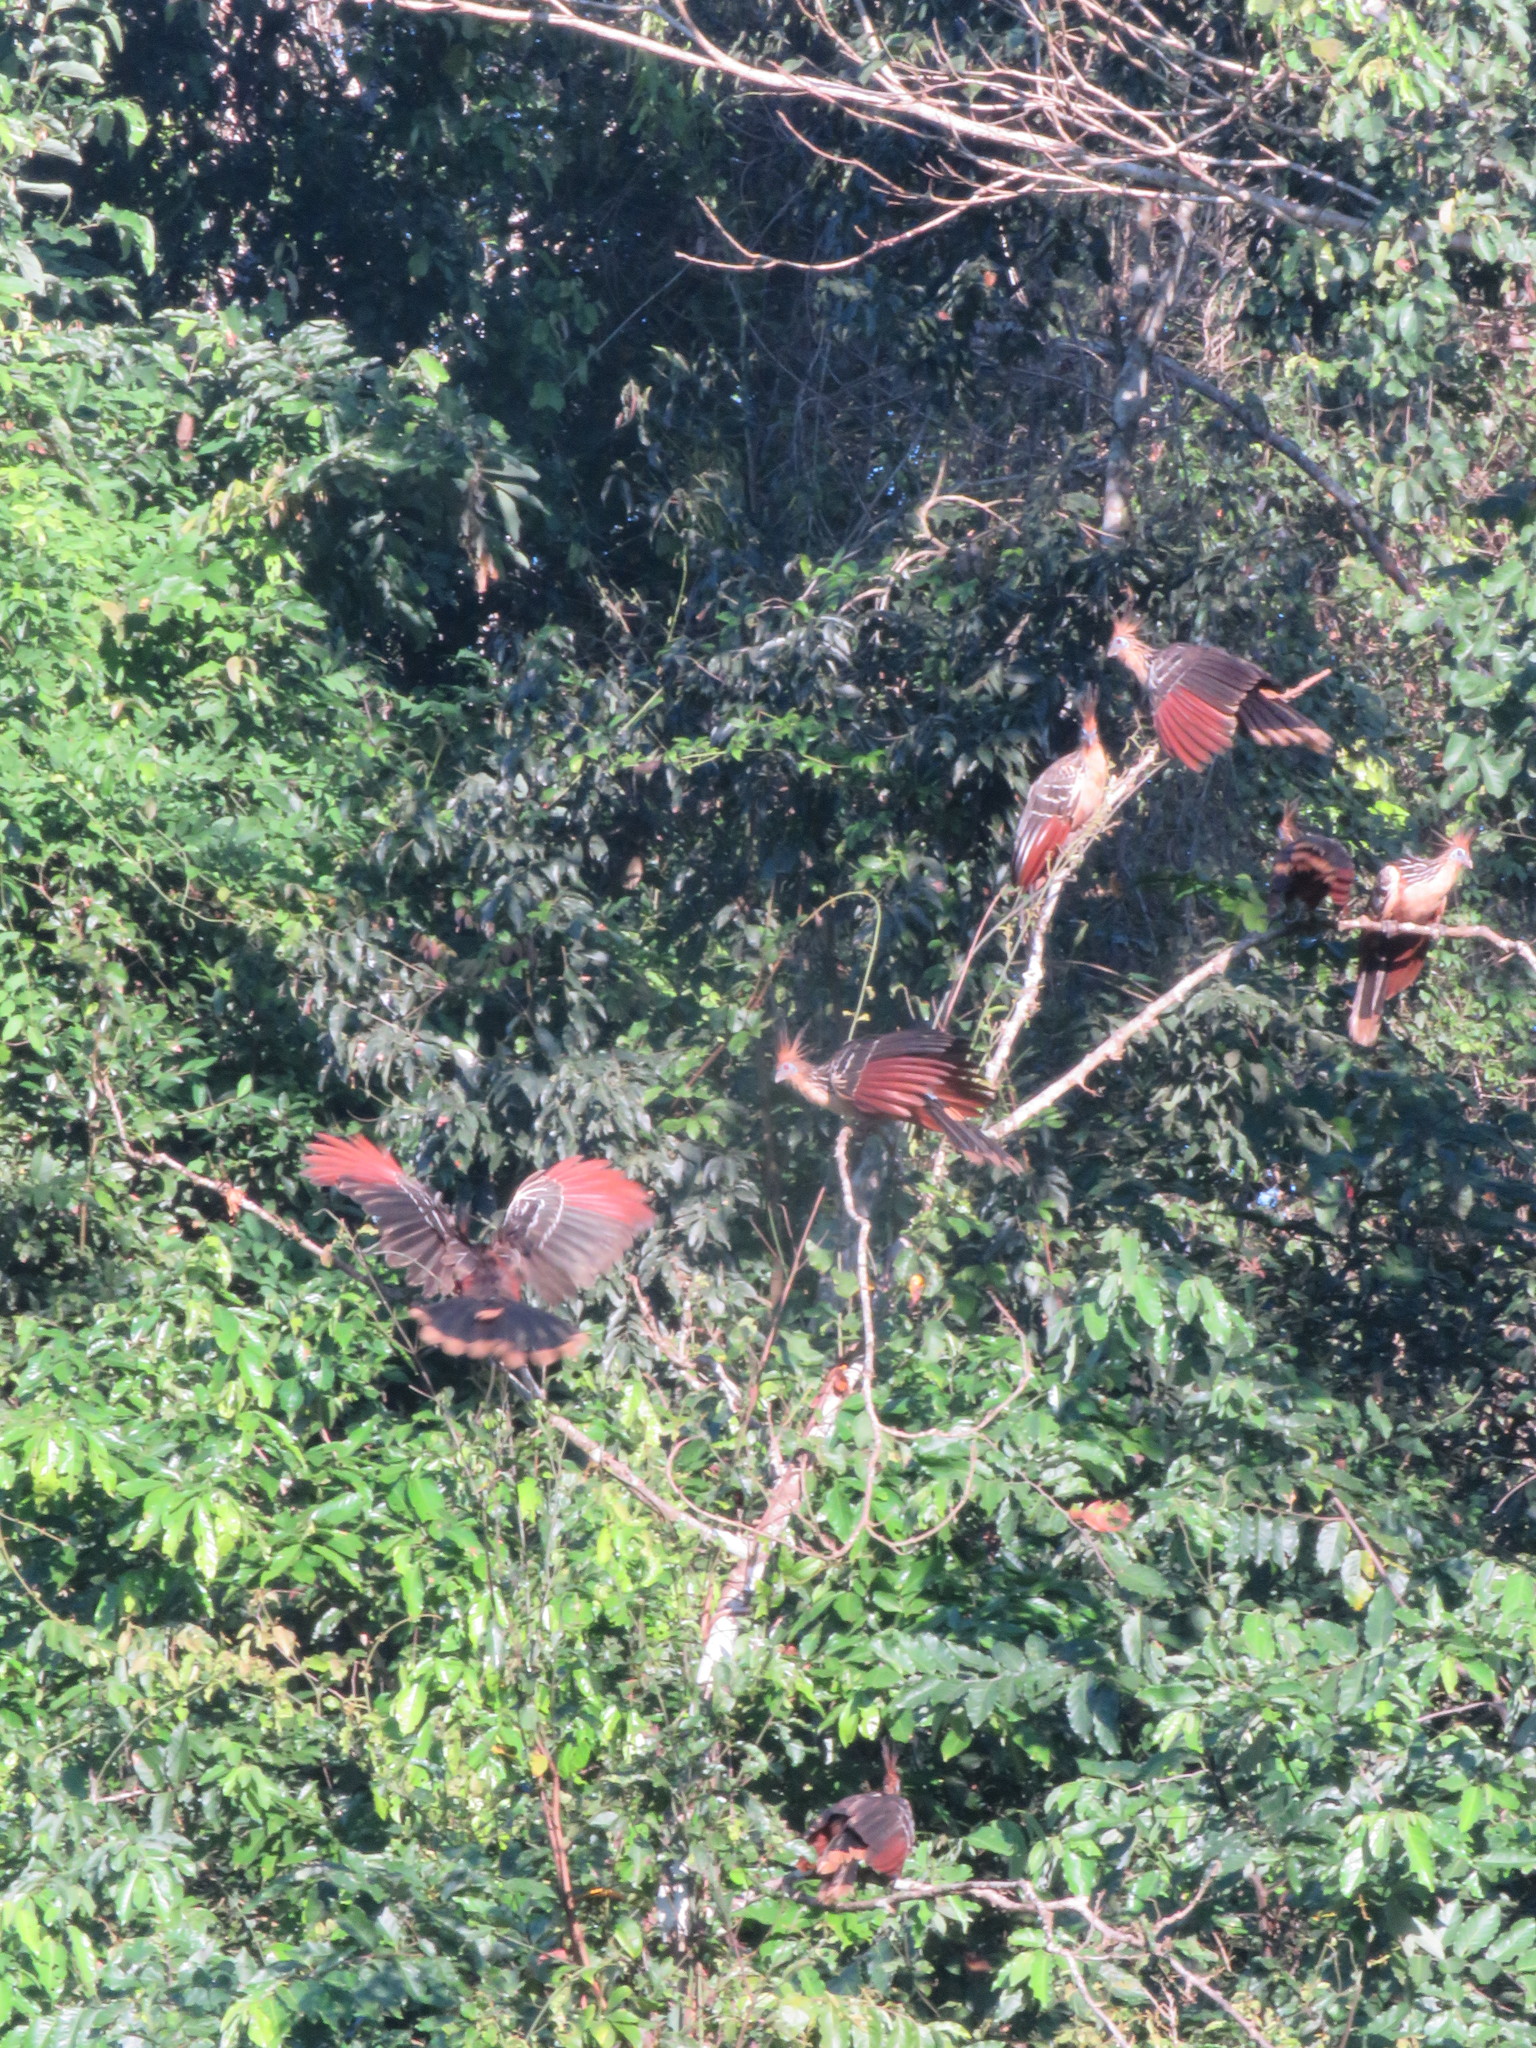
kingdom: Animalia
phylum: Chordata
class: Aves
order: Opisthocomiformes
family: Opisthocomidae
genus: Opisthocomus
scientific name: Opisthocomus hoazin
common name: Hoatzin
